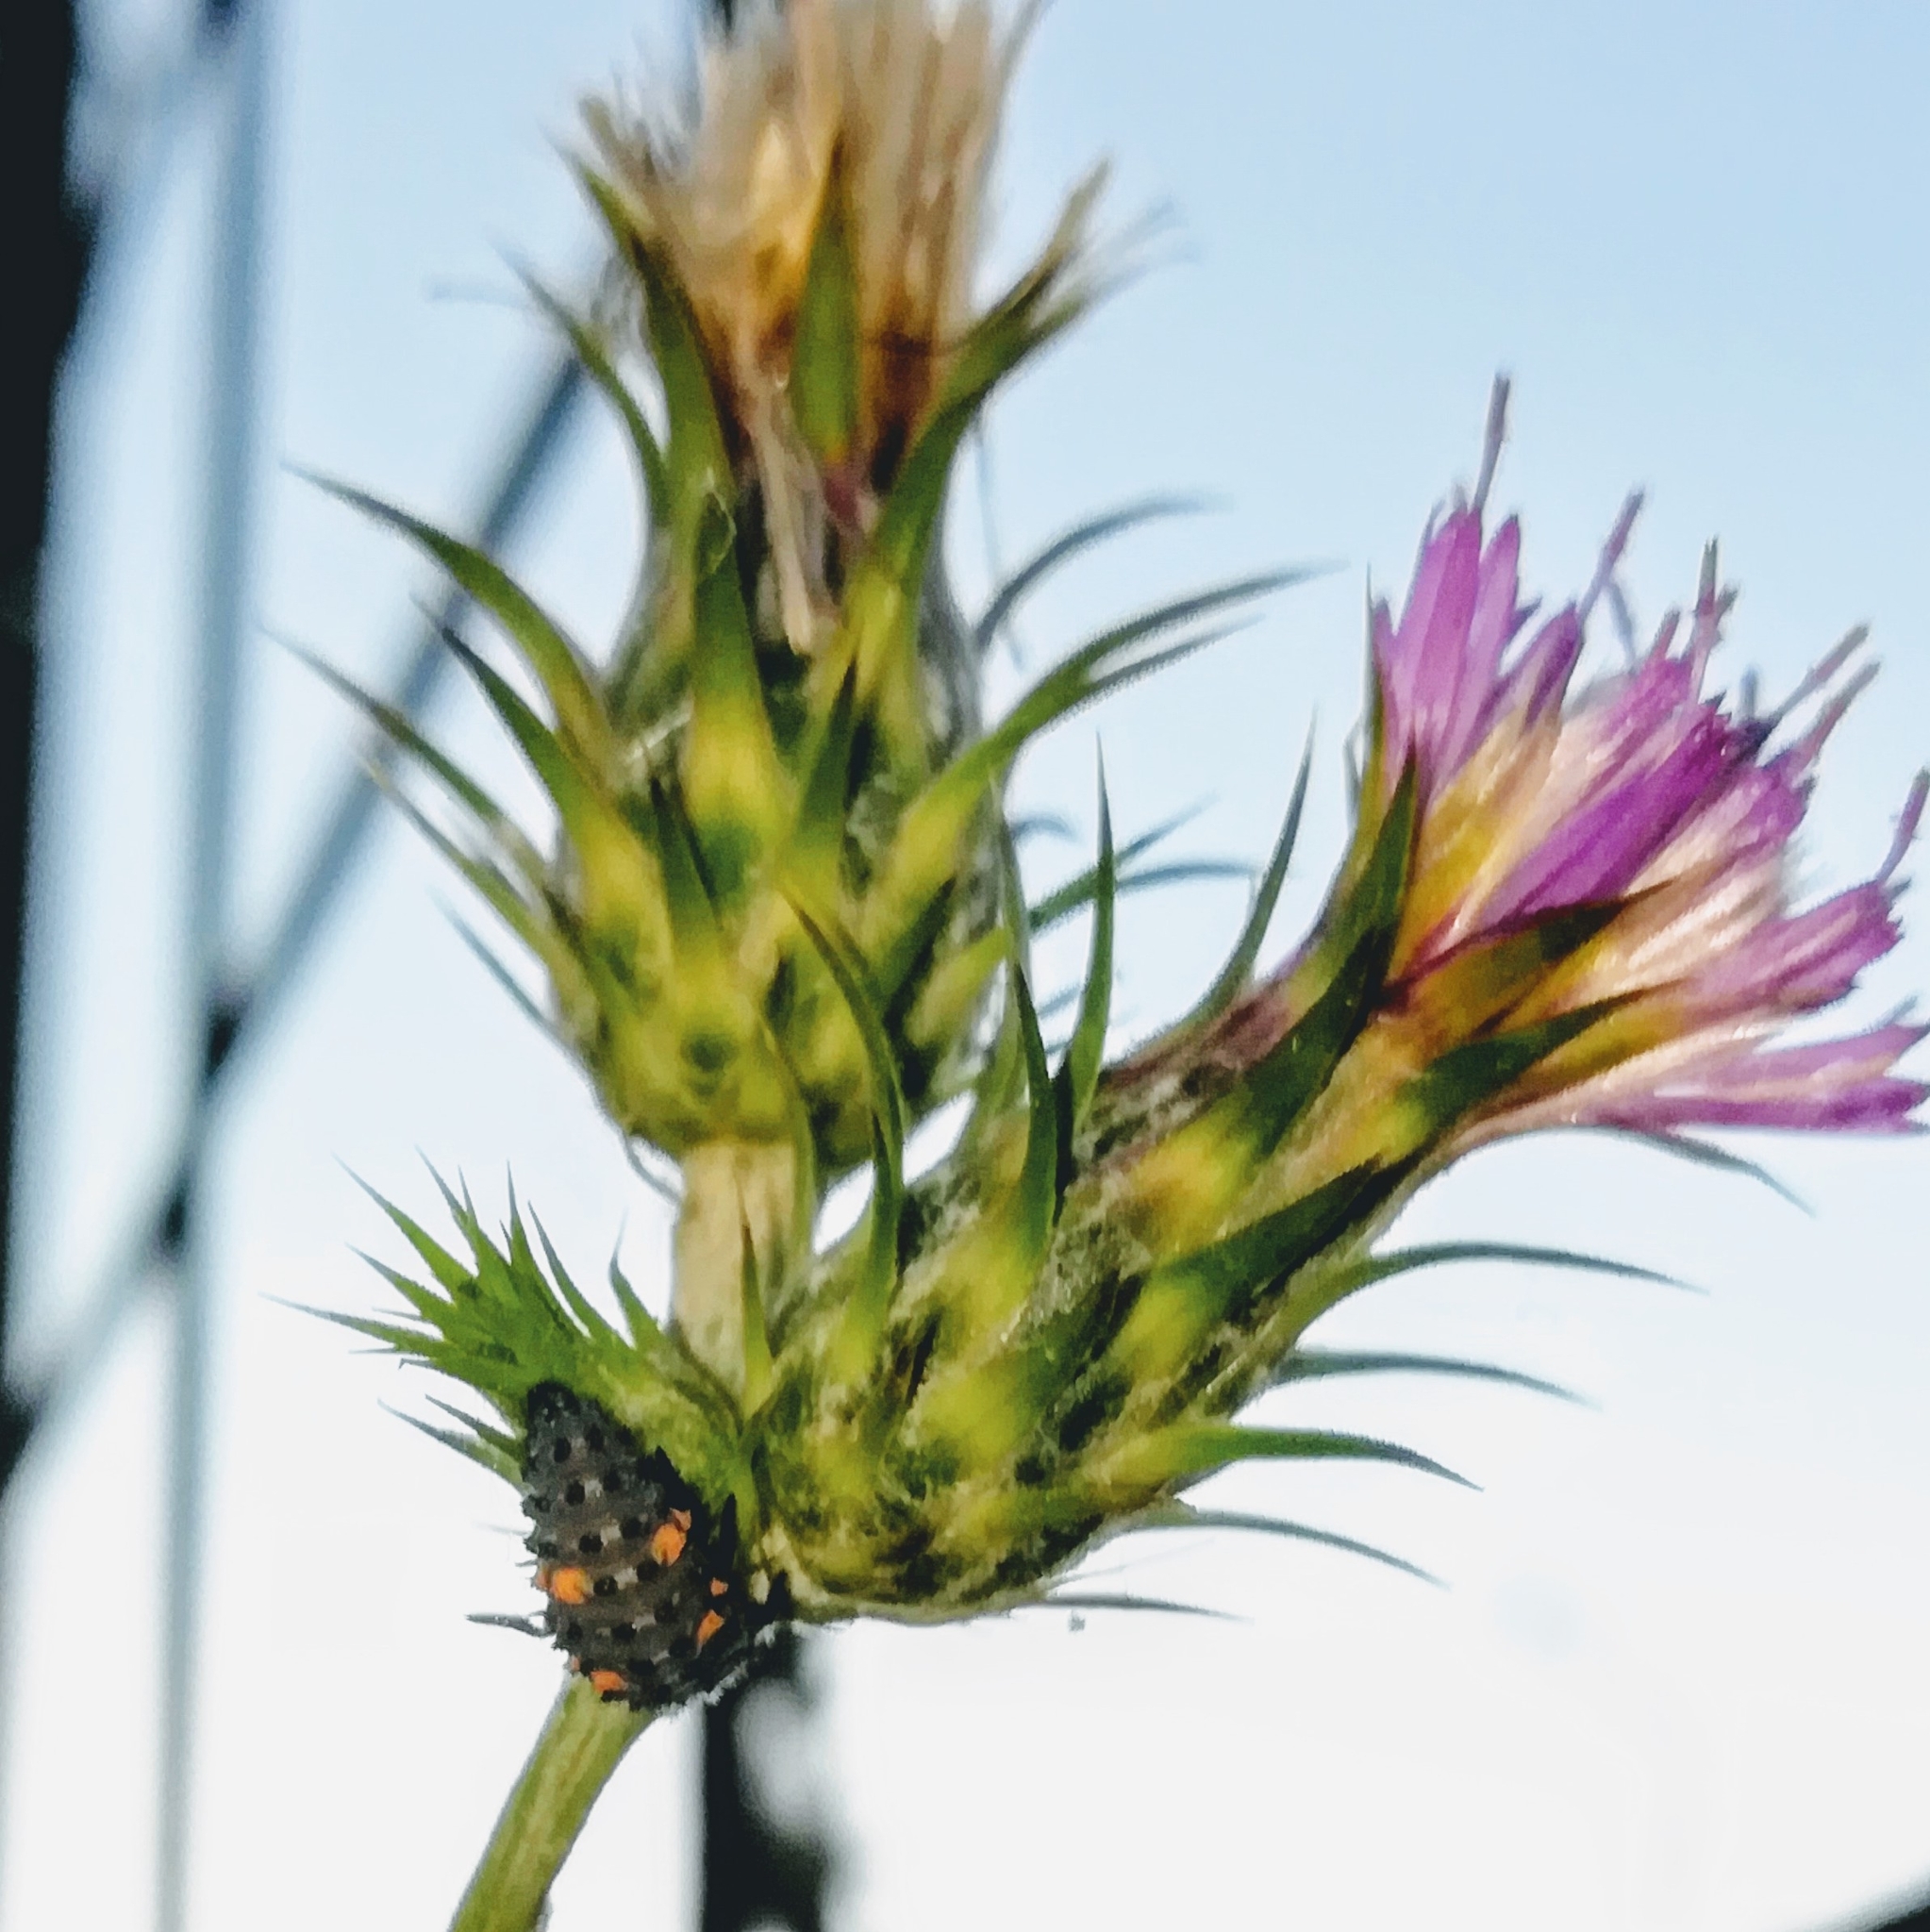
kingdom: Animalia
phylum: Arthropoda
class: Insecta
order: Coleoptera
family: Coccinellidae
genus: Coccinella
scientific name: Coccinella septempunctata
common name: Sevenspotted lady beetle
